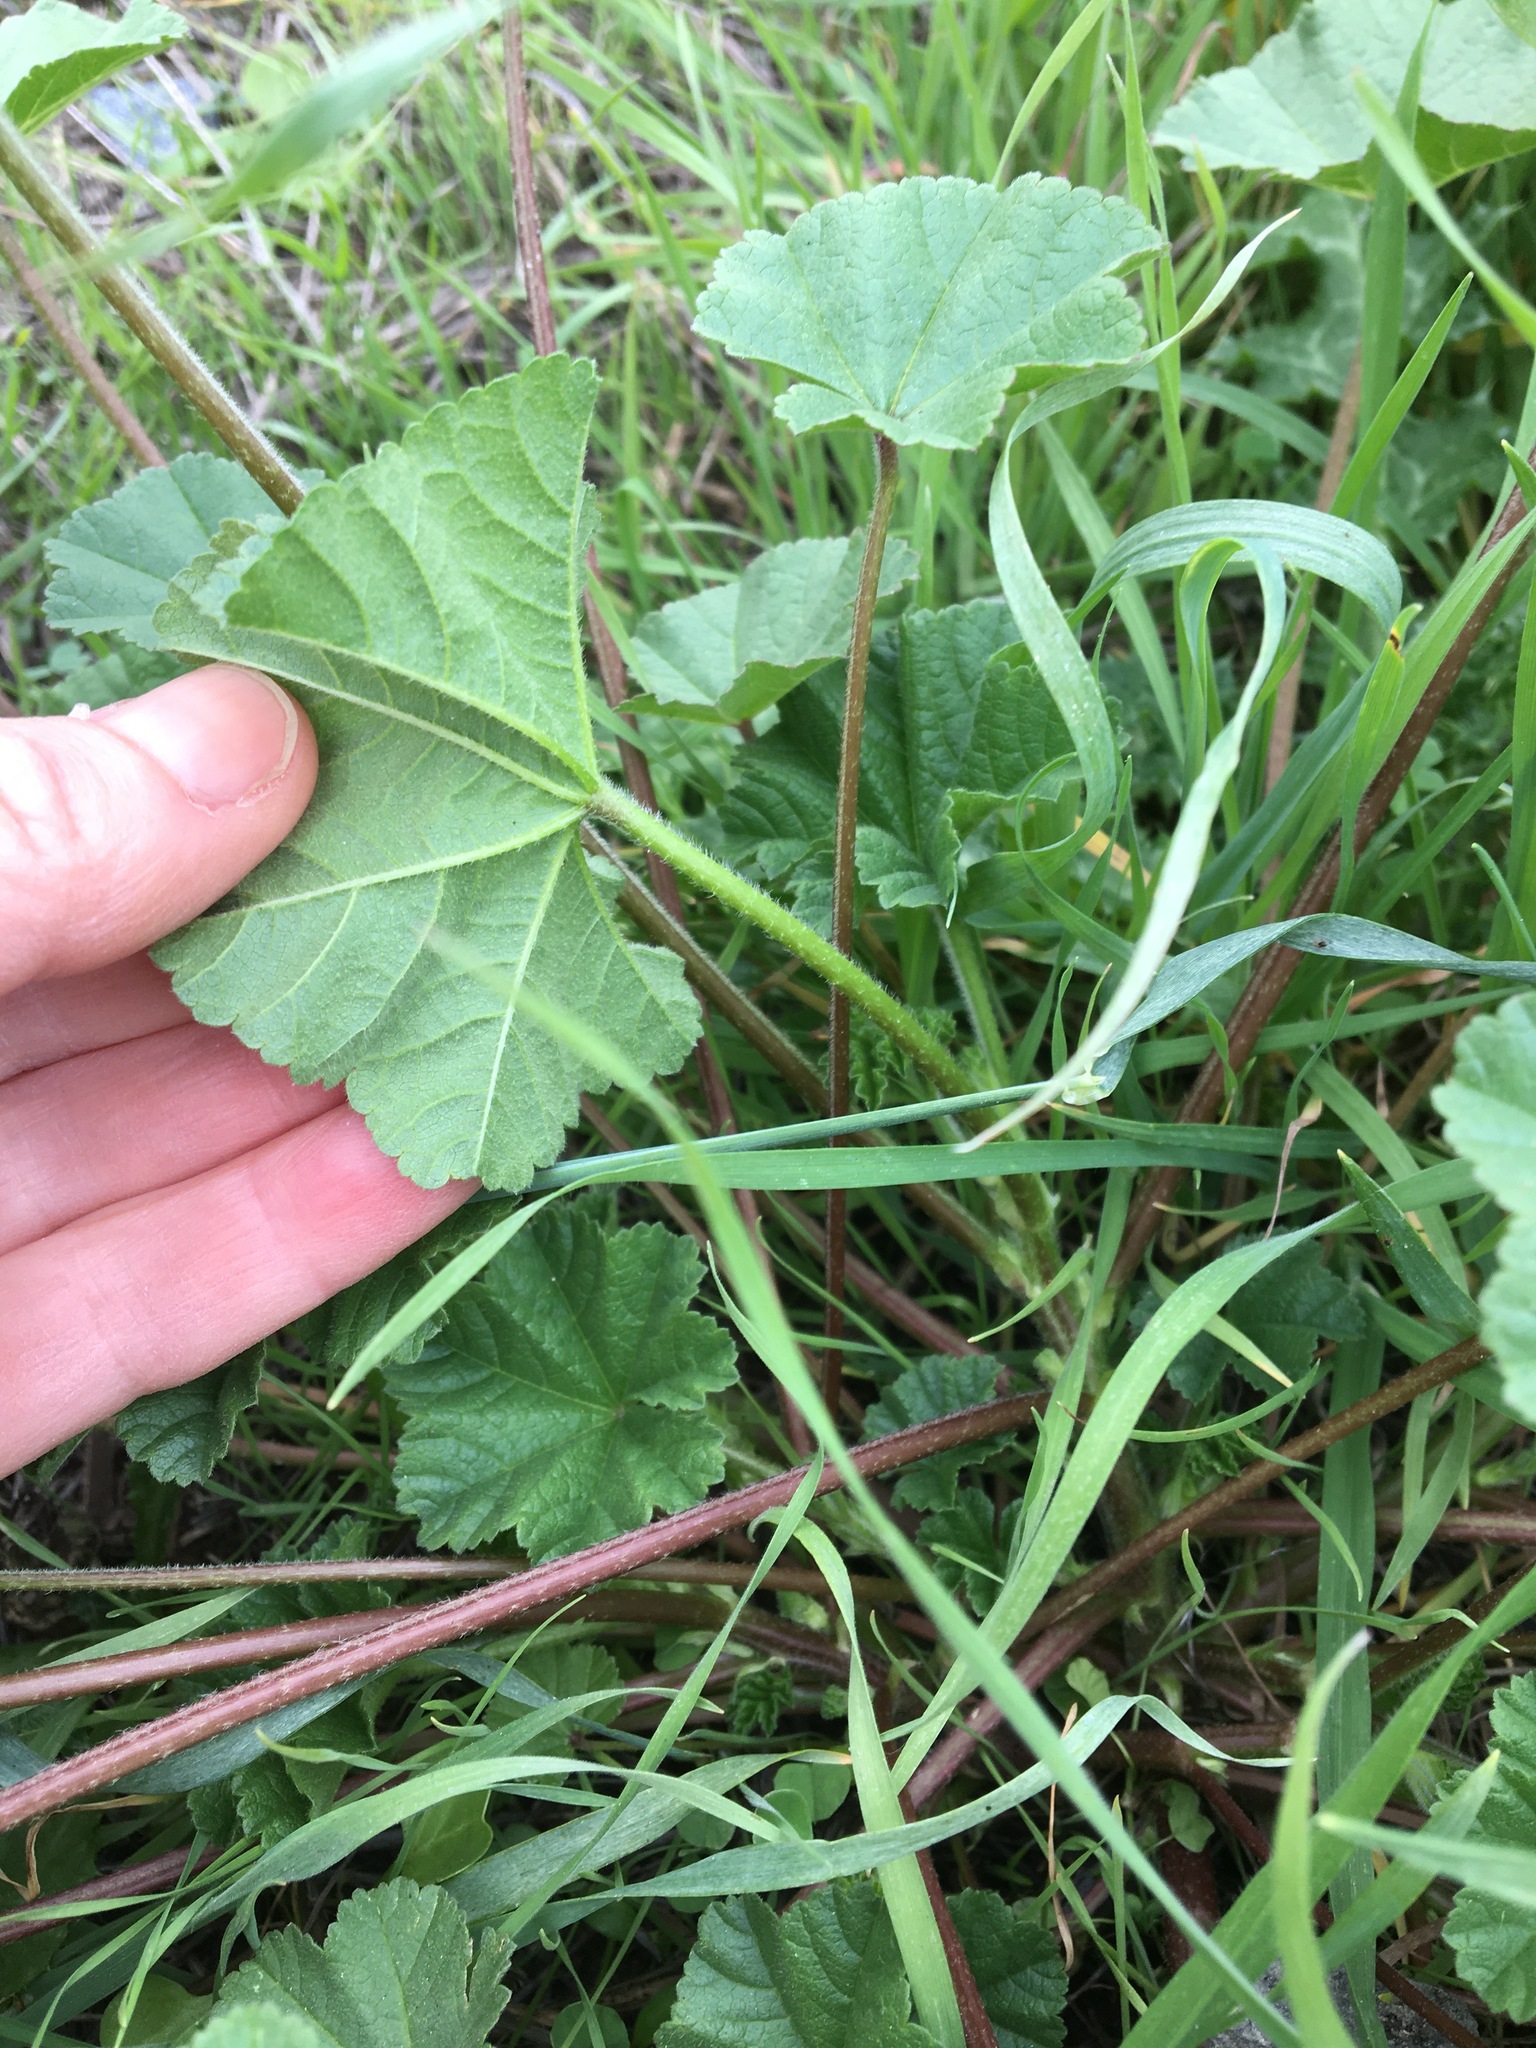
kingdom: Plantae
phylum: Tracheophyta
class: Magnoliopsida
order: Malvales
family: Malvaceae
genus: Malva
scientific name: Malva parviflora
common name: Least mallow
